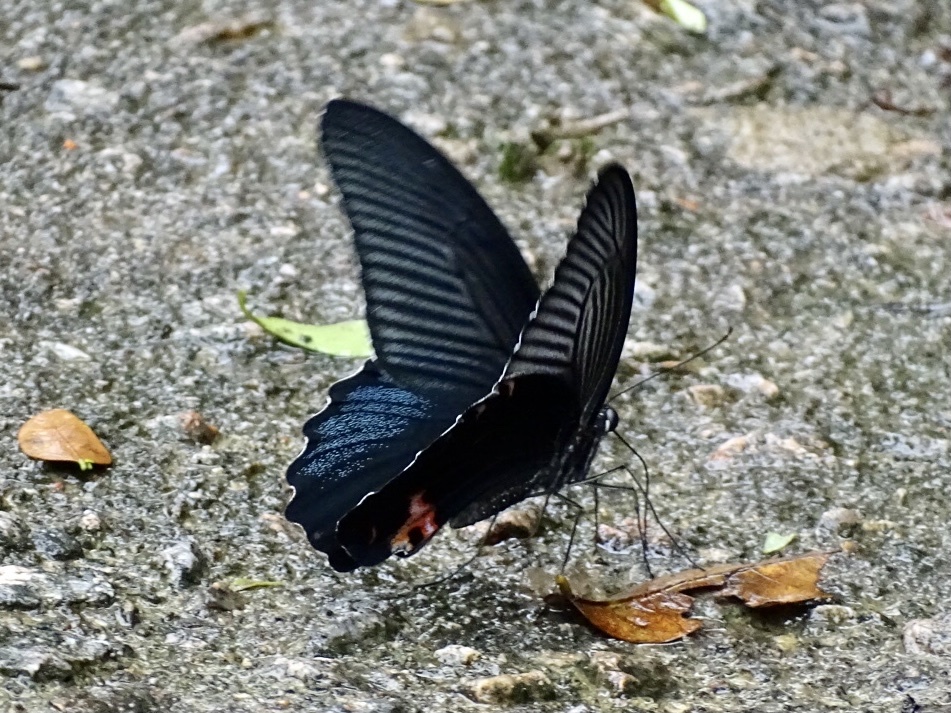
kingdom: Animalia
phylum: Arthropoda
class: Insecta
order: Lepidoptera
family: Papilionidae
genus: Papilio
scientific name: Papilio protenor
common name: Spangle
